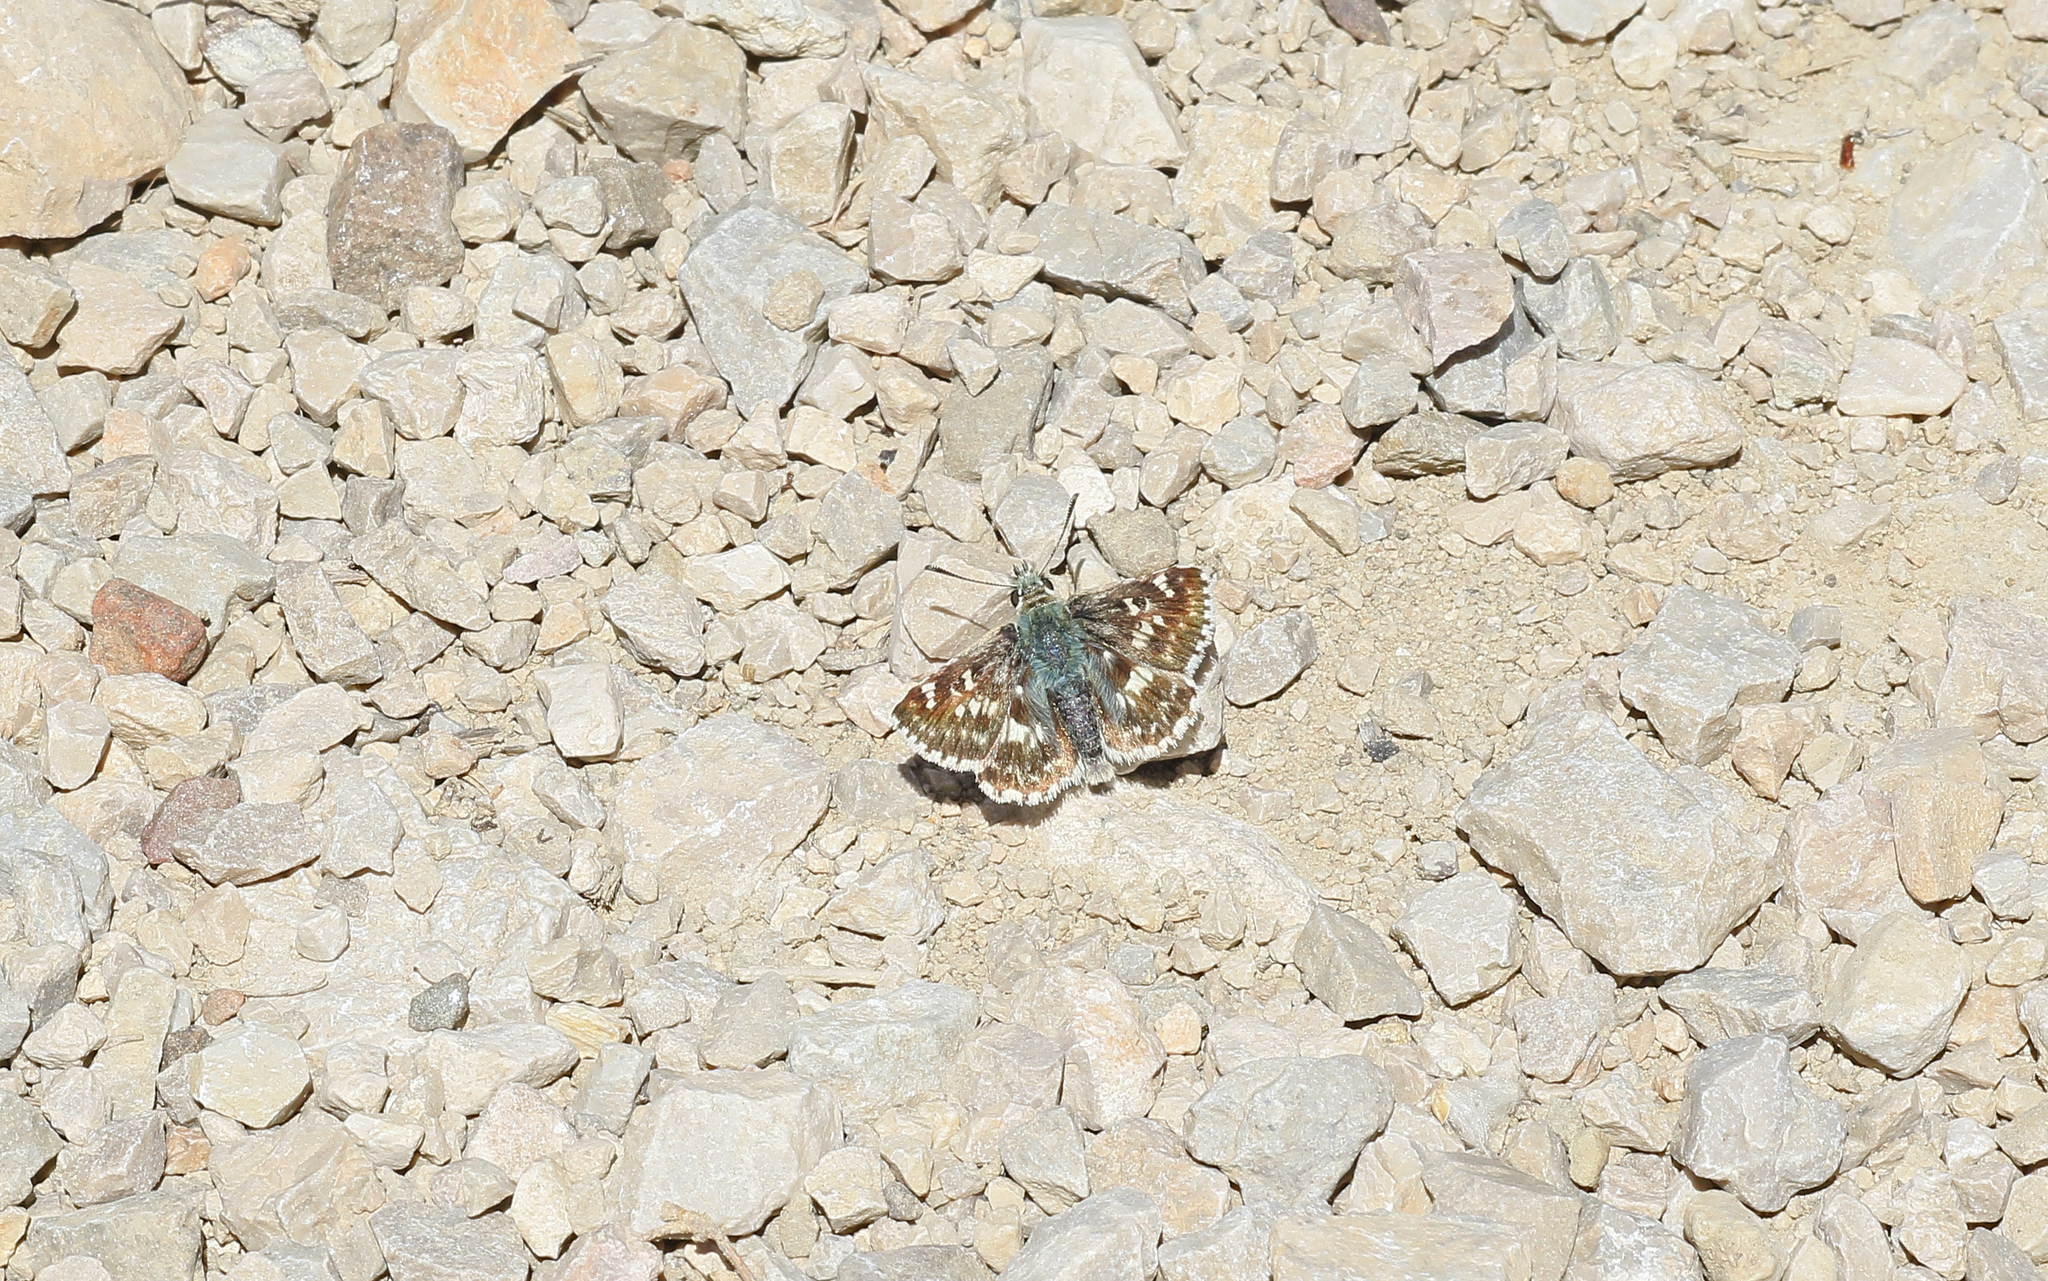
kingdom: Animalia
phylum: Arthropoda
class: Insecta
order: Lepidoptera
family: Hesperiidae
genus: Syrichtus
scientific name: Syrichtus Muschampia proto
